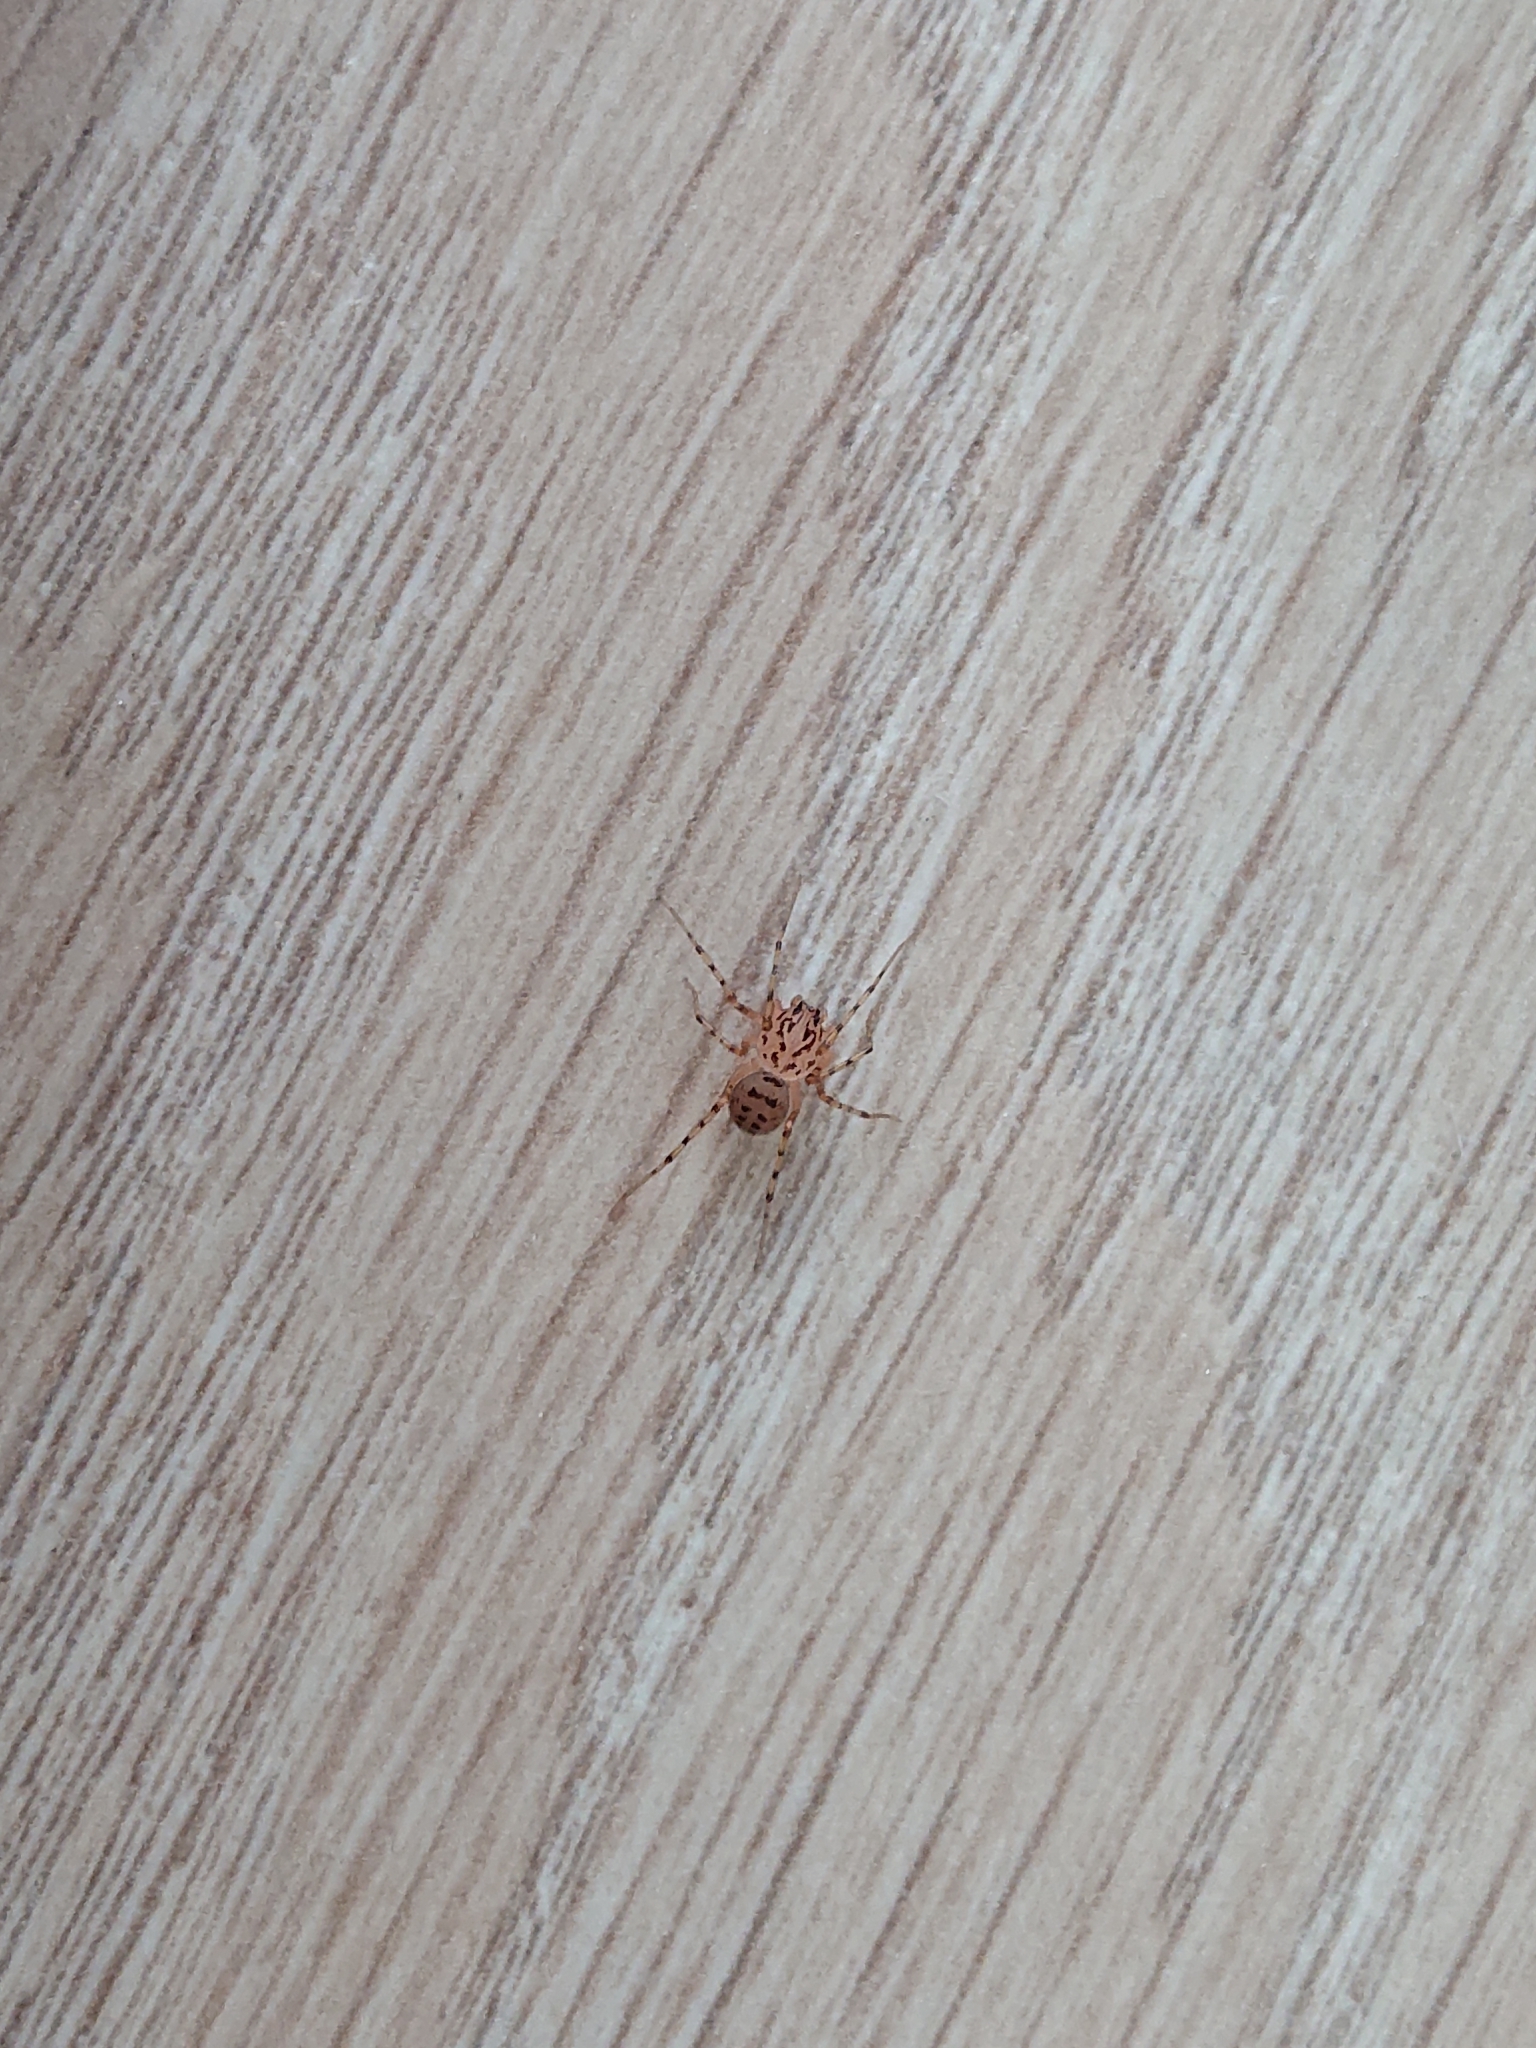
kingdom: Animalia
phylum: Arthropoda
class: Arachnida
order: Araneae
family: Scytodidae
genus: Scytodes
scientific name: Scytodes thoracica
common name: Spitting spider
